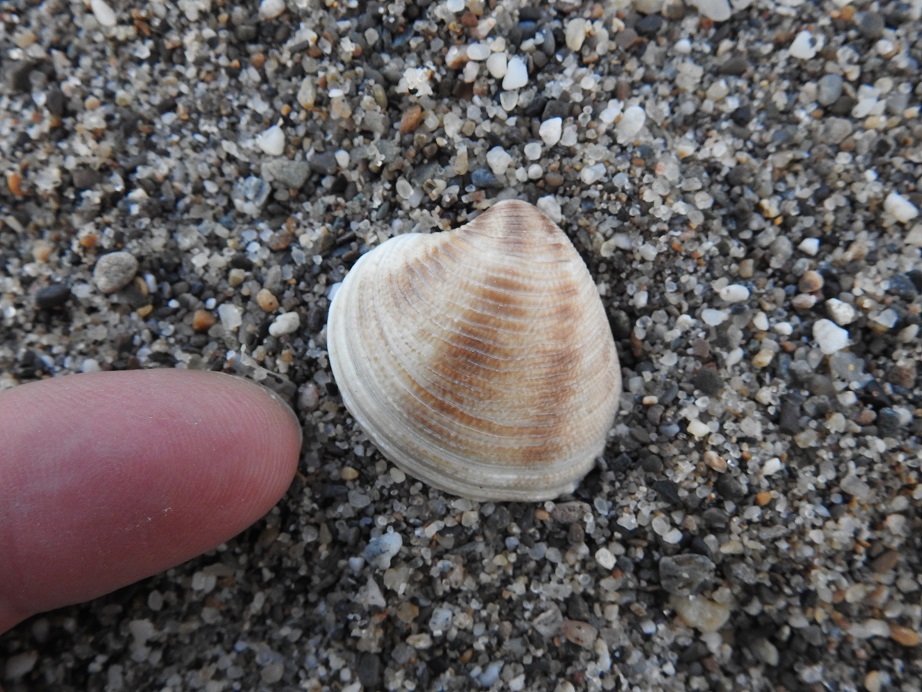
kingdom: Animalia
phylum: Mollusca
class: Bivalvia
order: Venerida
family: Veneridae
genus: Chamelea
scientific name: Chamelea gallina
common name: Chicken venus
